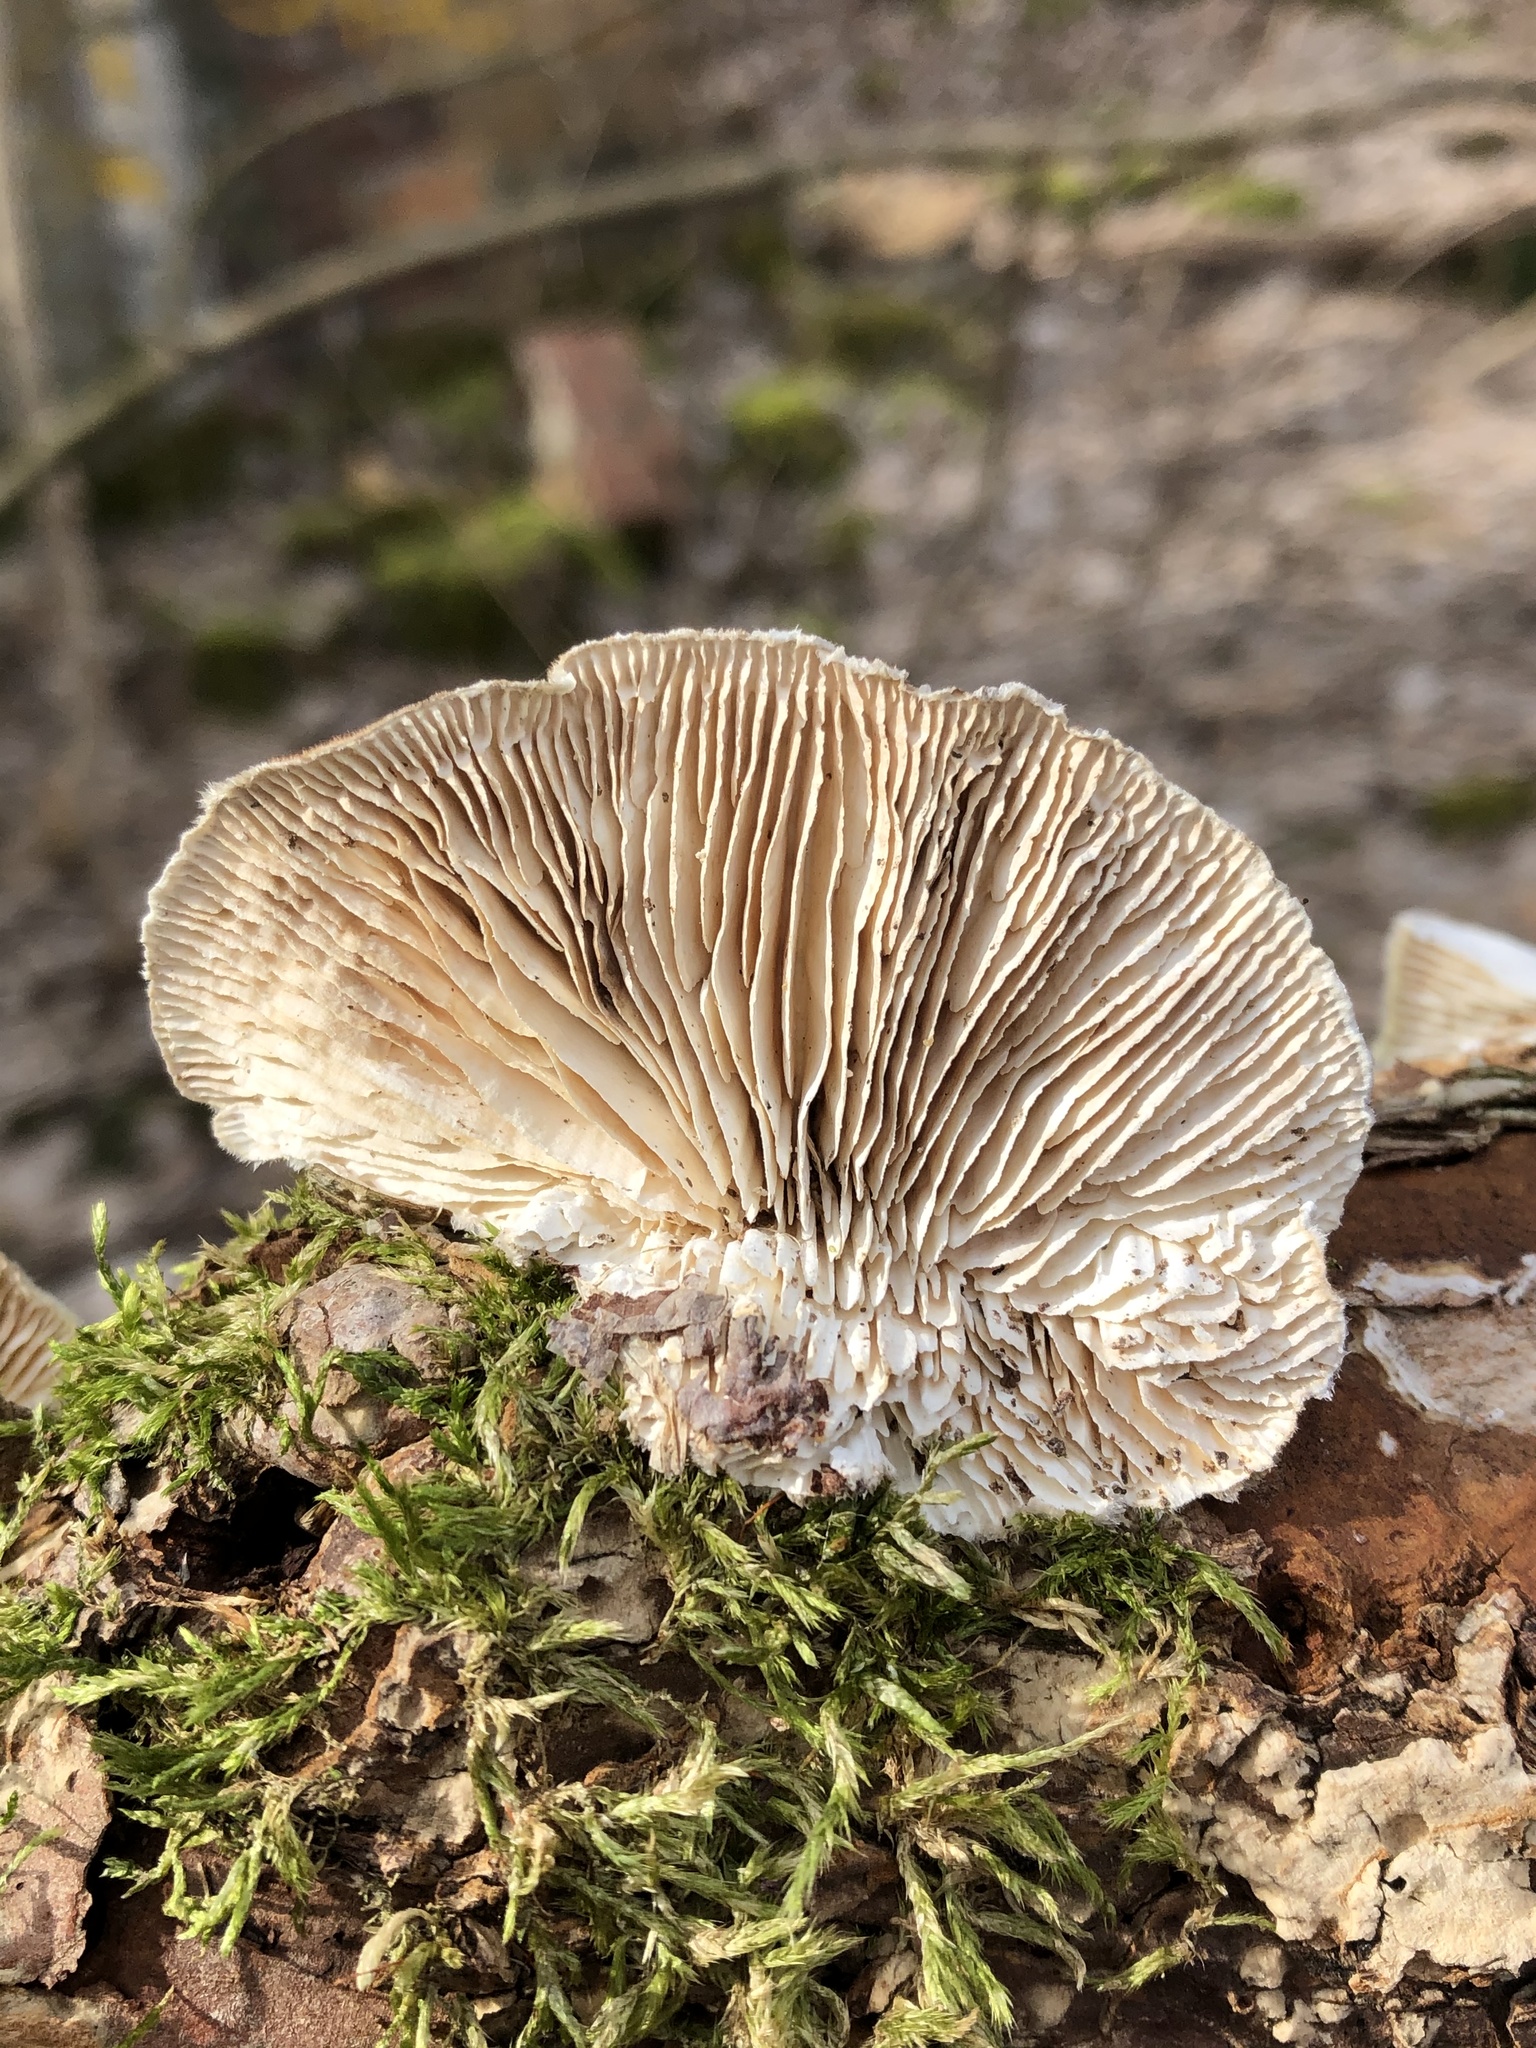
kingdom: Fungi
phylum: Basidiomycota
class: Agaricomycetes
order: Polyporales
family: Polyporaceae
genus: Lenzites
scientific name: Lenzites betulinus
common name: Birch mazegill
